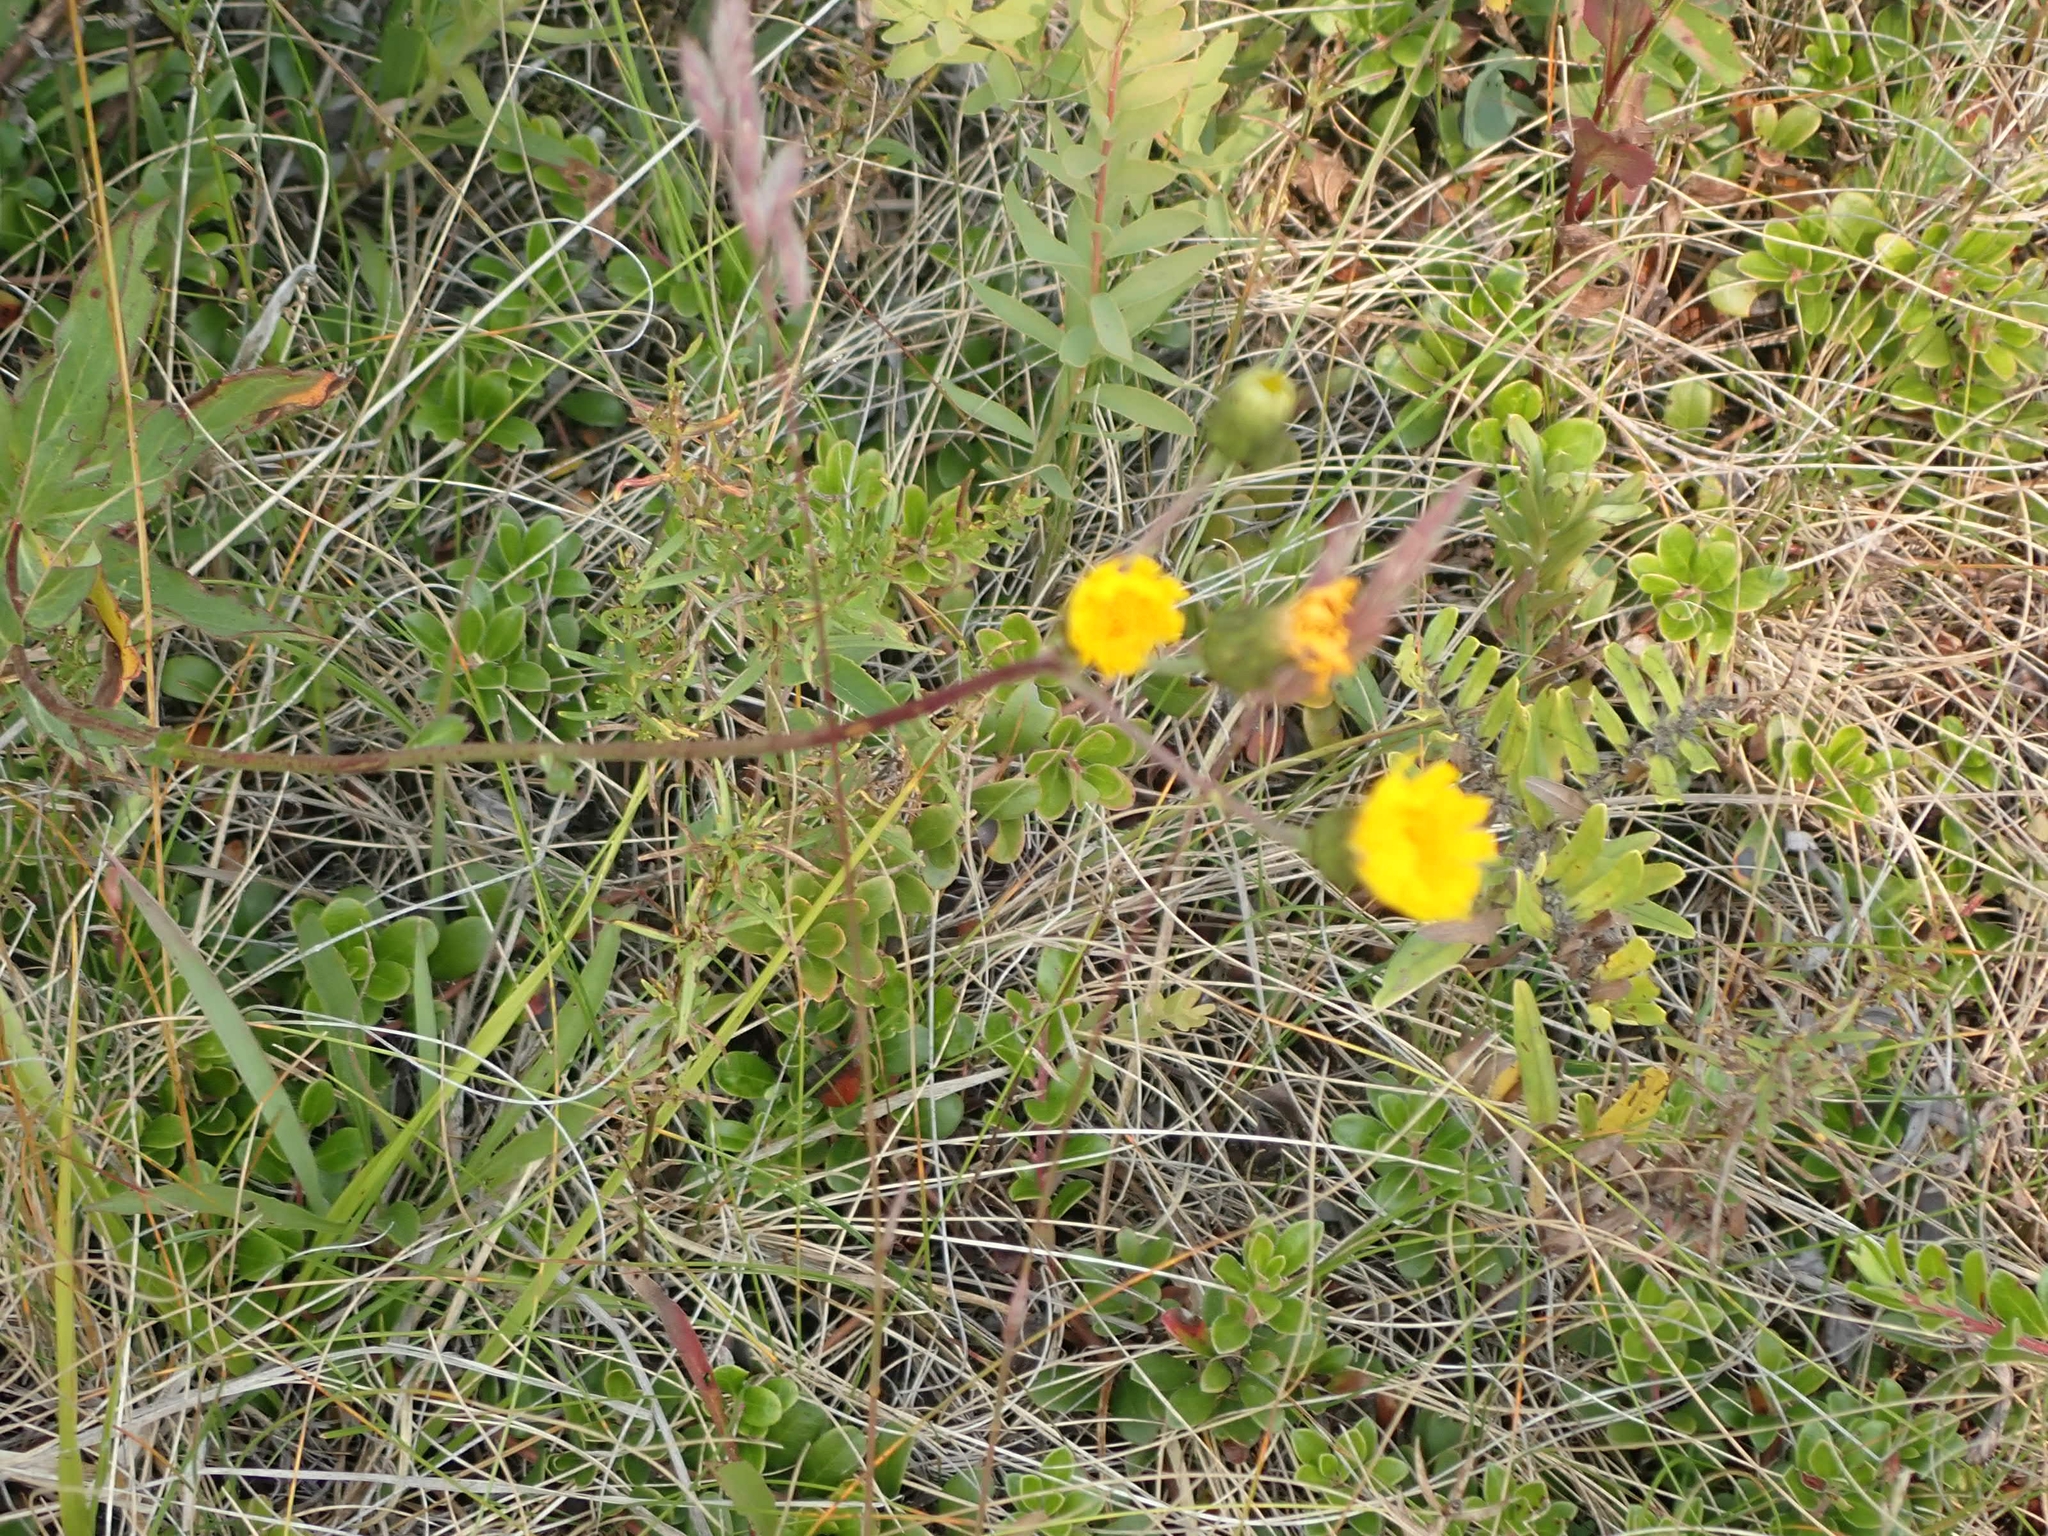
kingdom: Plantae
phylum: Tracheophyta
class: Magnoliopsida
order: Asterales
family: Asteraceae
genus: Hieracium
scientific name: Hieracium umbellatum
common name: Northern hawkweed
